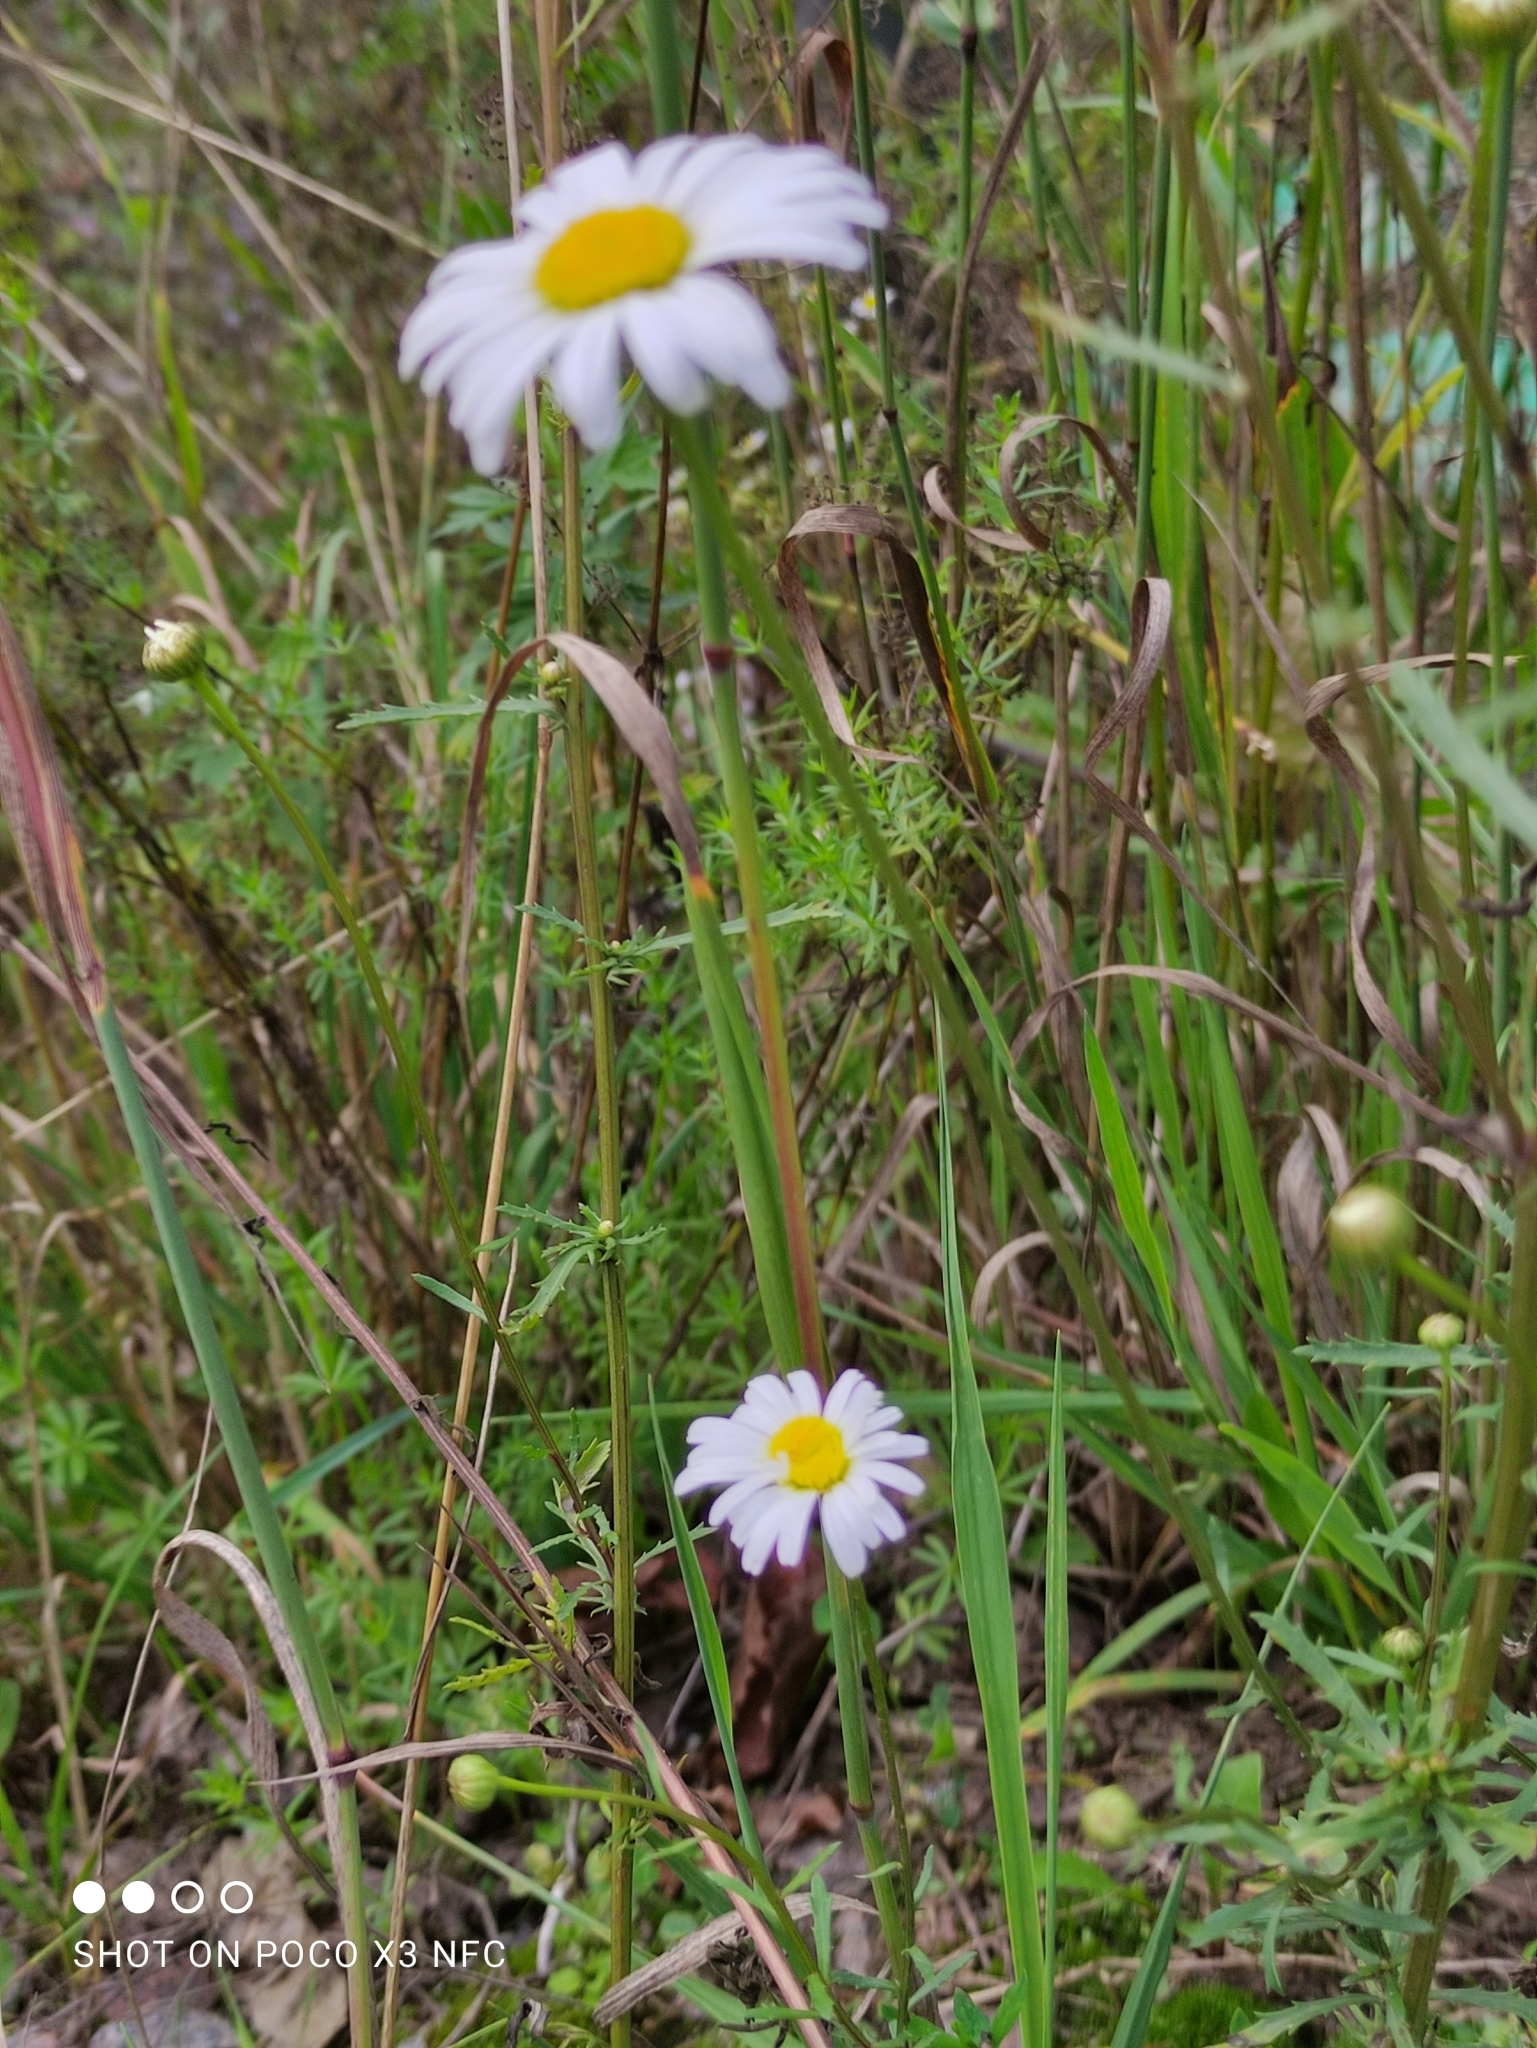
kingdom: Plantae
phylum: Tracheophyta
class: Magnoliopsida
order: Asterales
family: Asteraceae
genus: Leucanthemum
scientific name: Leucanthemum vulgare
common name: Oxeye daisy
